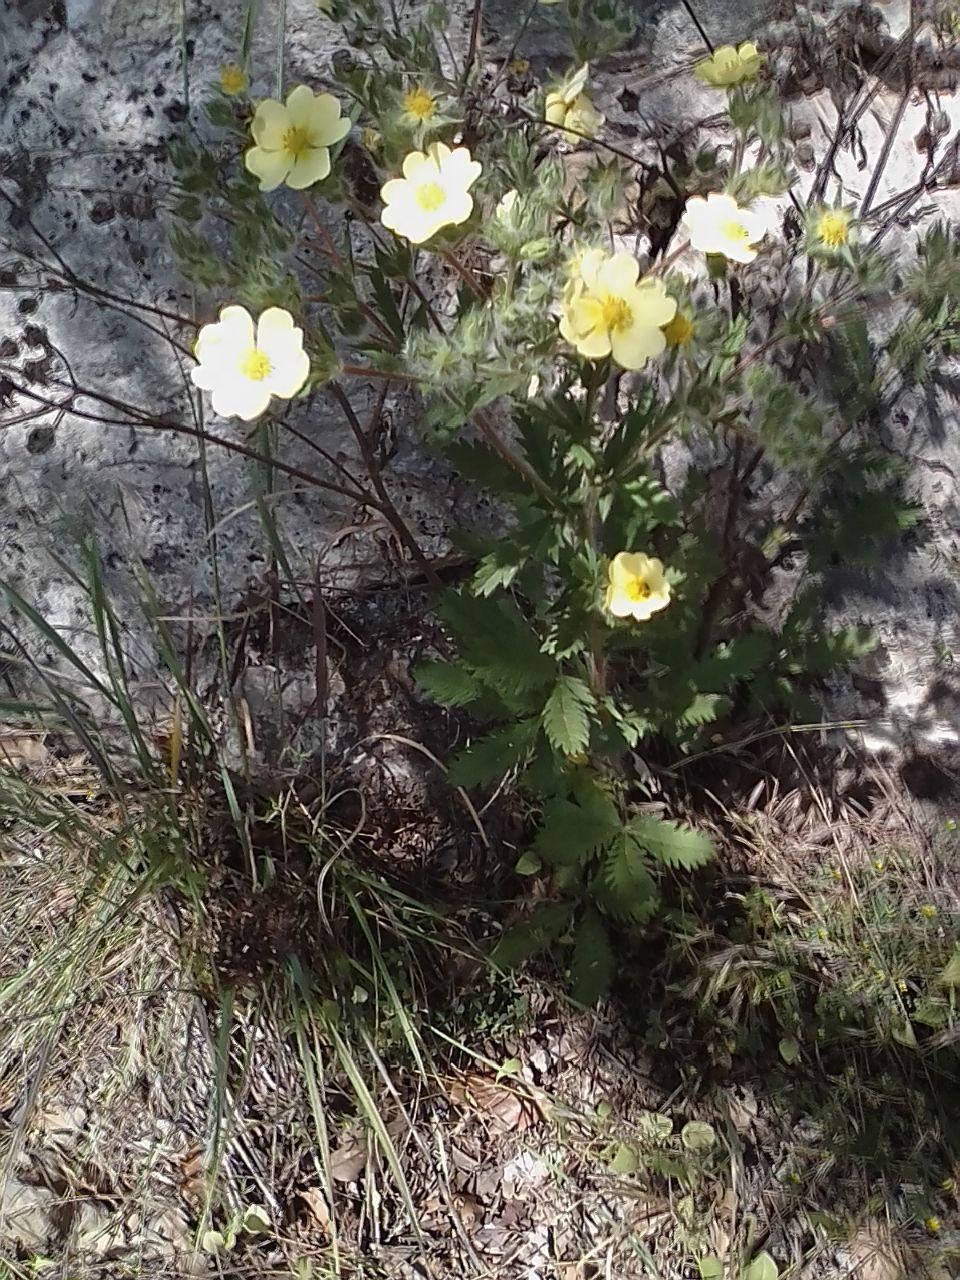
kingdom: Plantae
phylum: Tracheophyta
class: Magnoliopsida
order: Rosales
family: Rosaceae
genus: Potentilla
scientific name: Potentilla recta
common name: Sulphur cinquefoil
